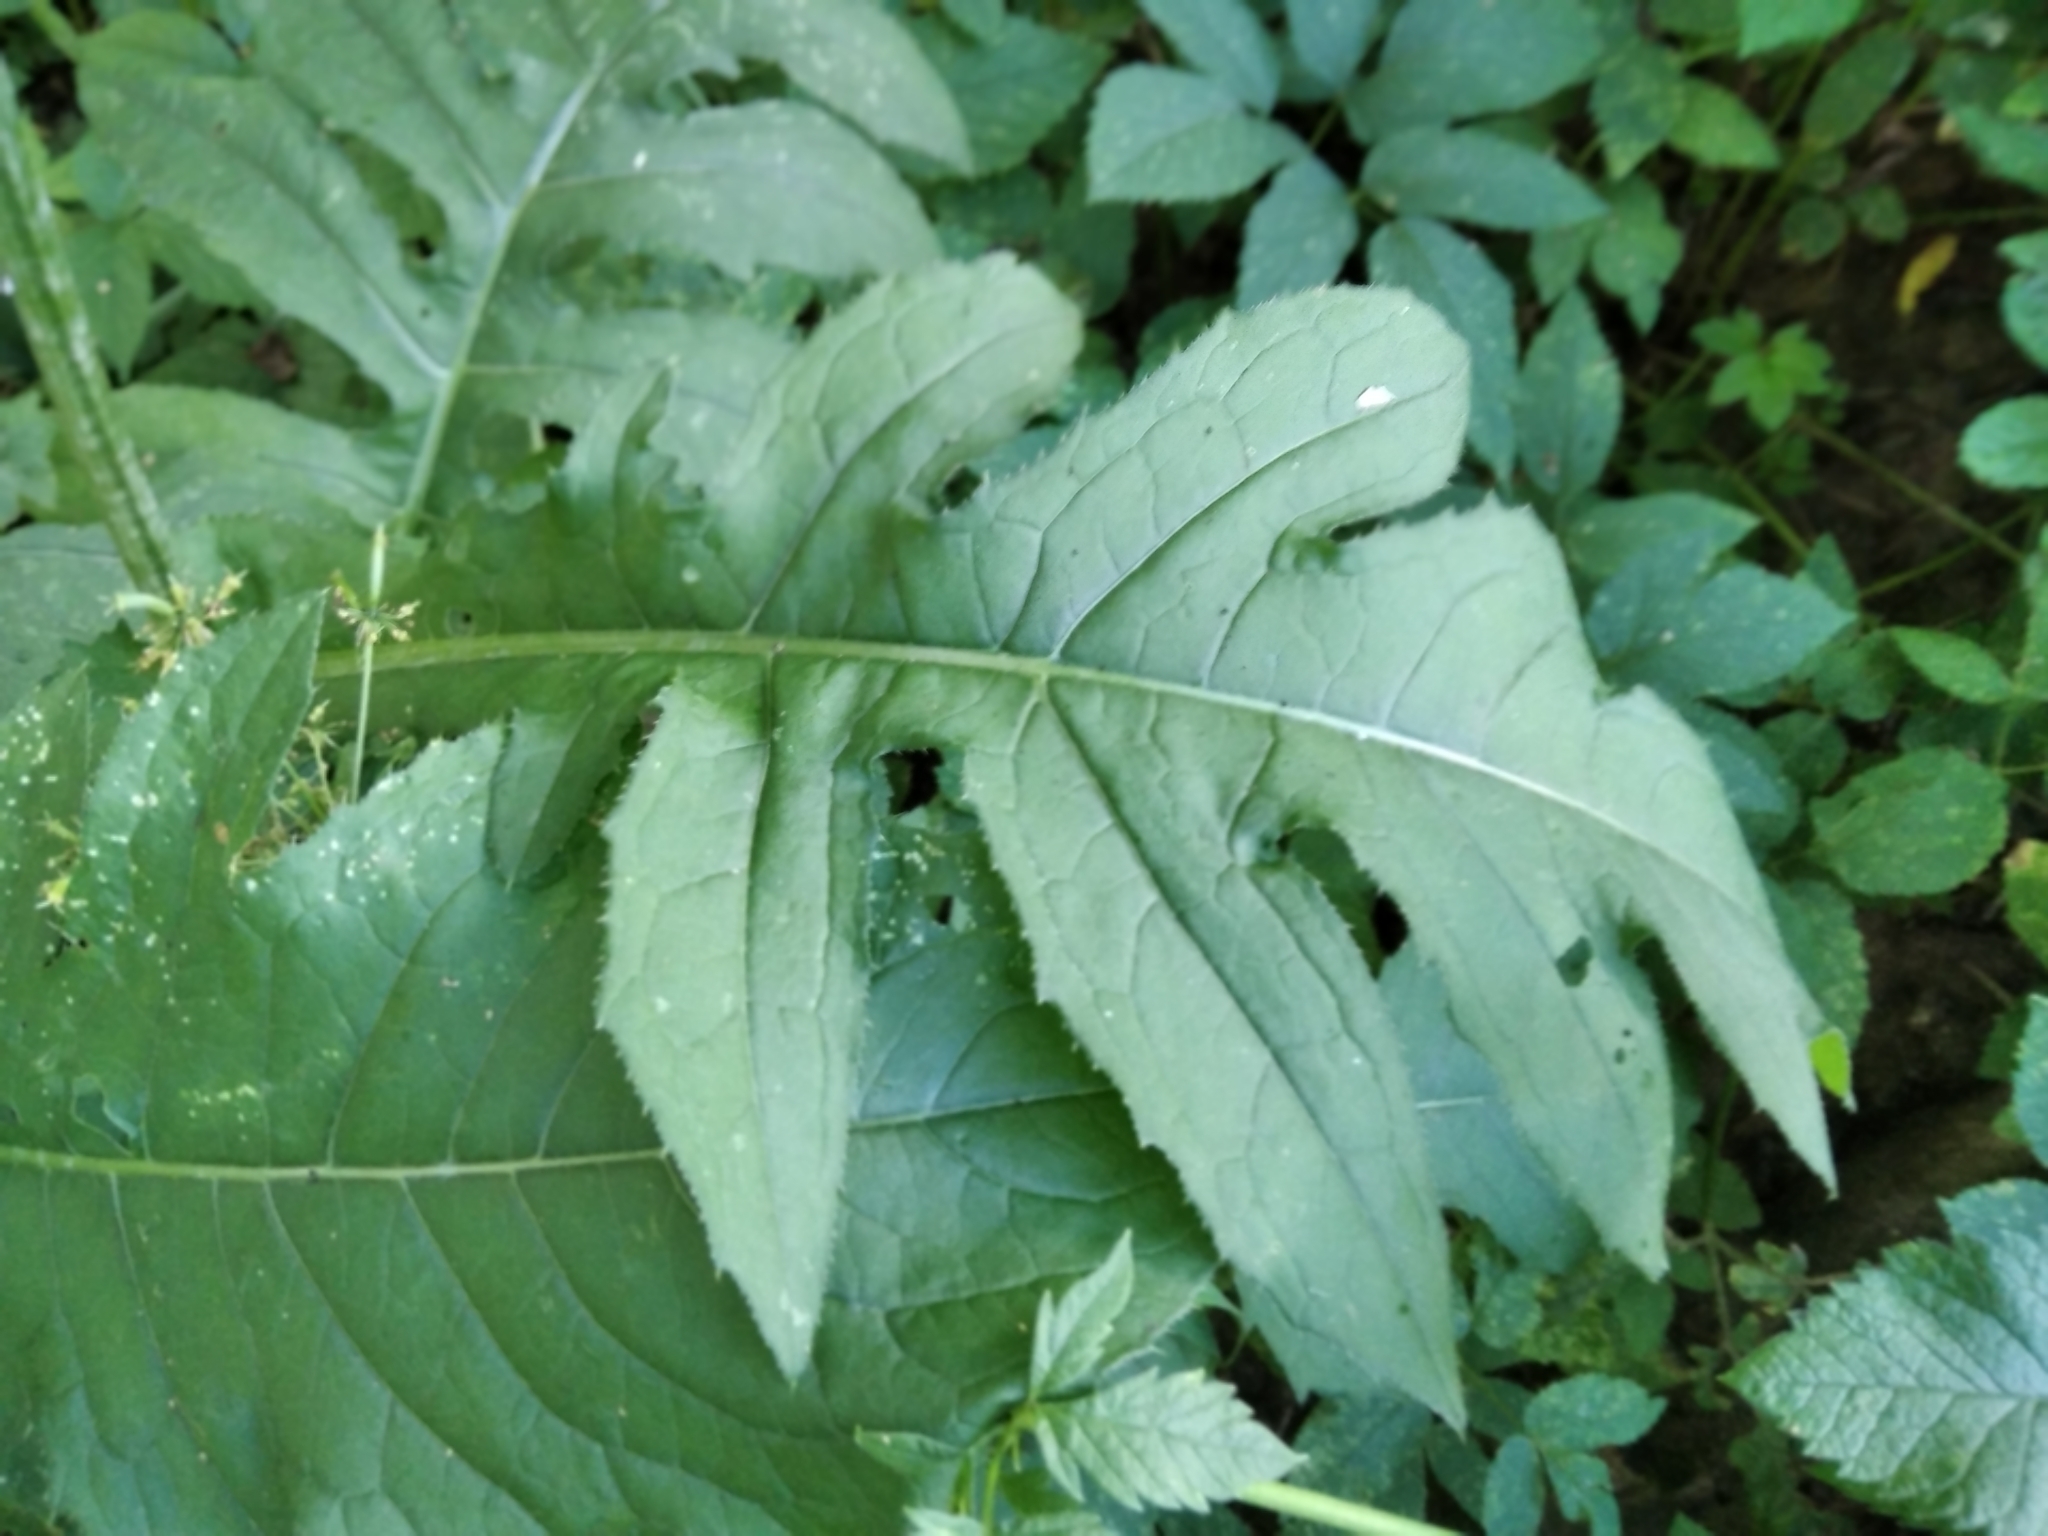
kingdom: Plantae
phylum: Tracheophyta
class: Magnoliopsida
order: Asterales
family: Asteraceae
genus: Cirsium
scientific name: Cirsium oleraceum
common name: Cabbage thistle
